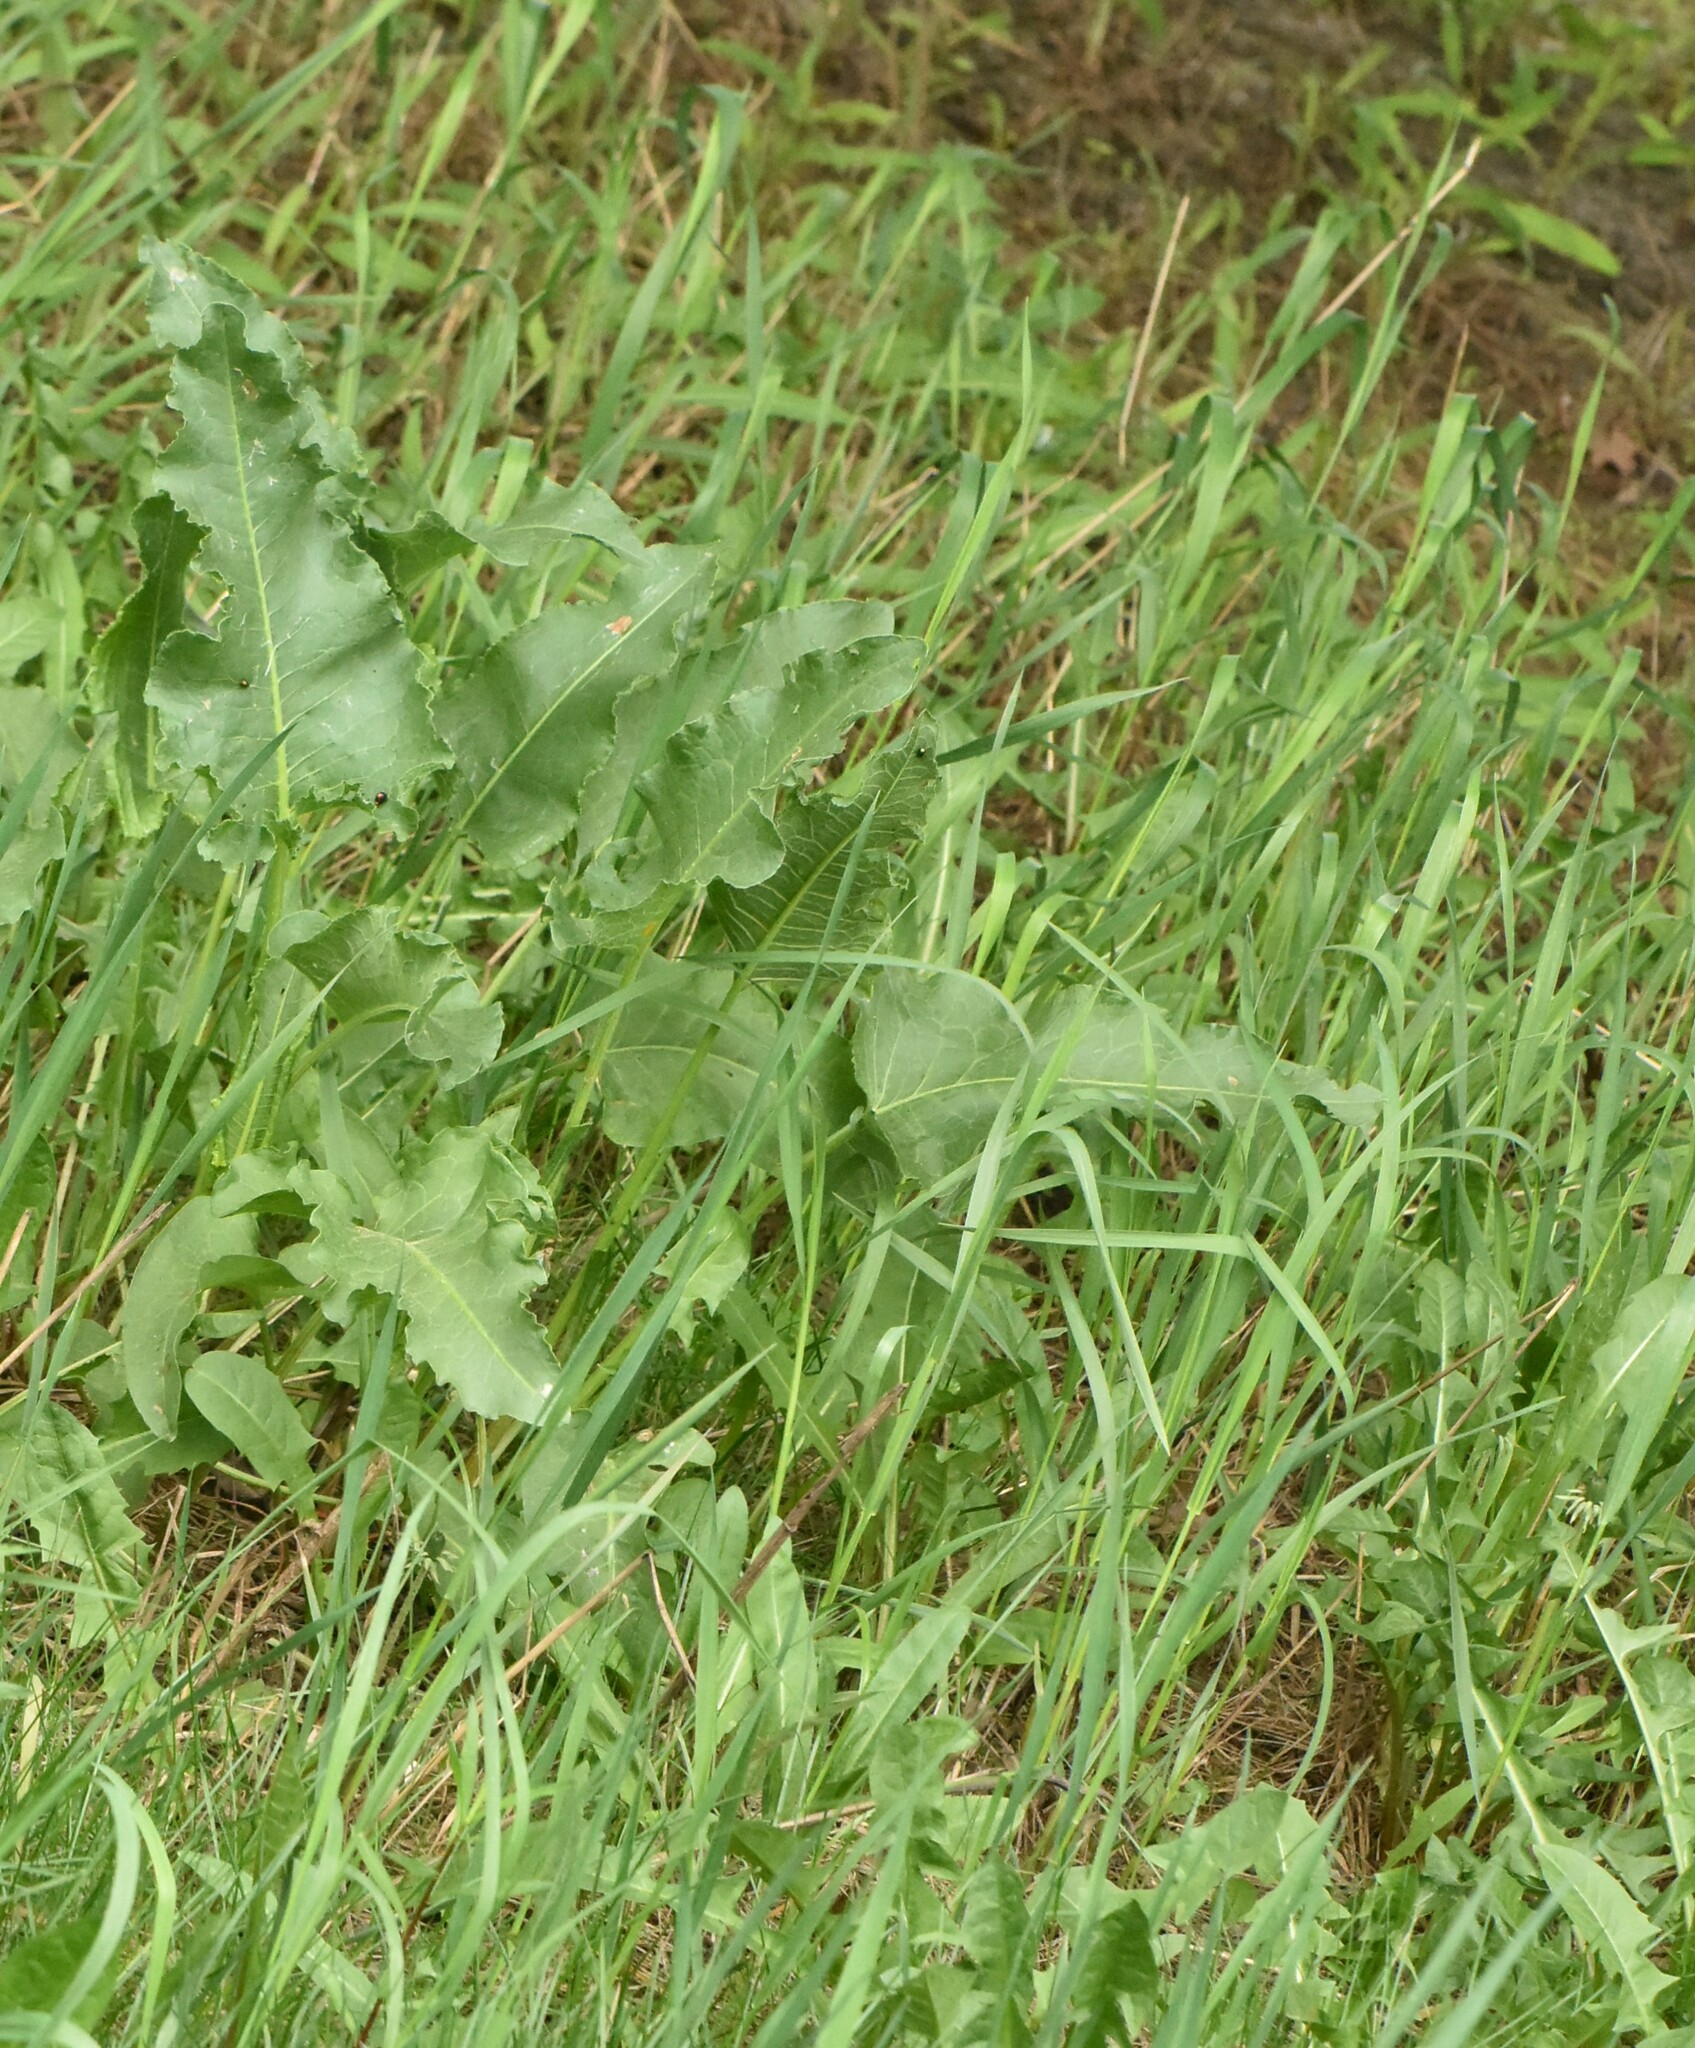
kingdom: Plantae
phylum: Tracheophyta
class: Magnoliopsida
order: Caryophyllales
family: Polygonaceae
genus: Rumex
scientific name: Rumex confertus
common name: Russian dock
